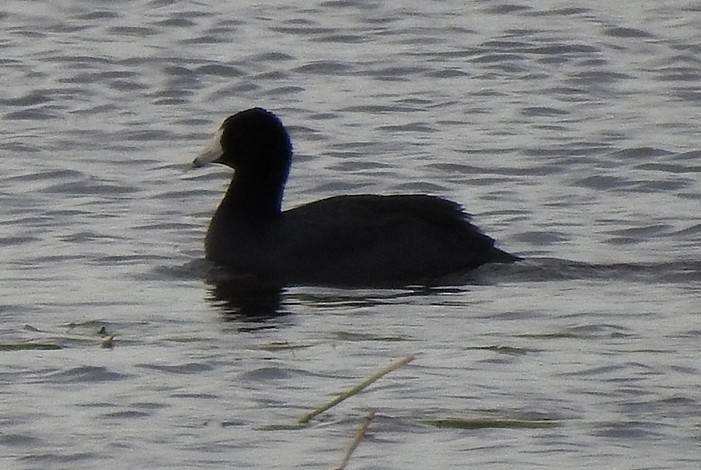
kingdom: Animalia
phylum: Chordata
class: Aves
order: Gruiformes
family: Rallidae
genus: Fulica
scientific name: Fulica americana
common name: American coot
